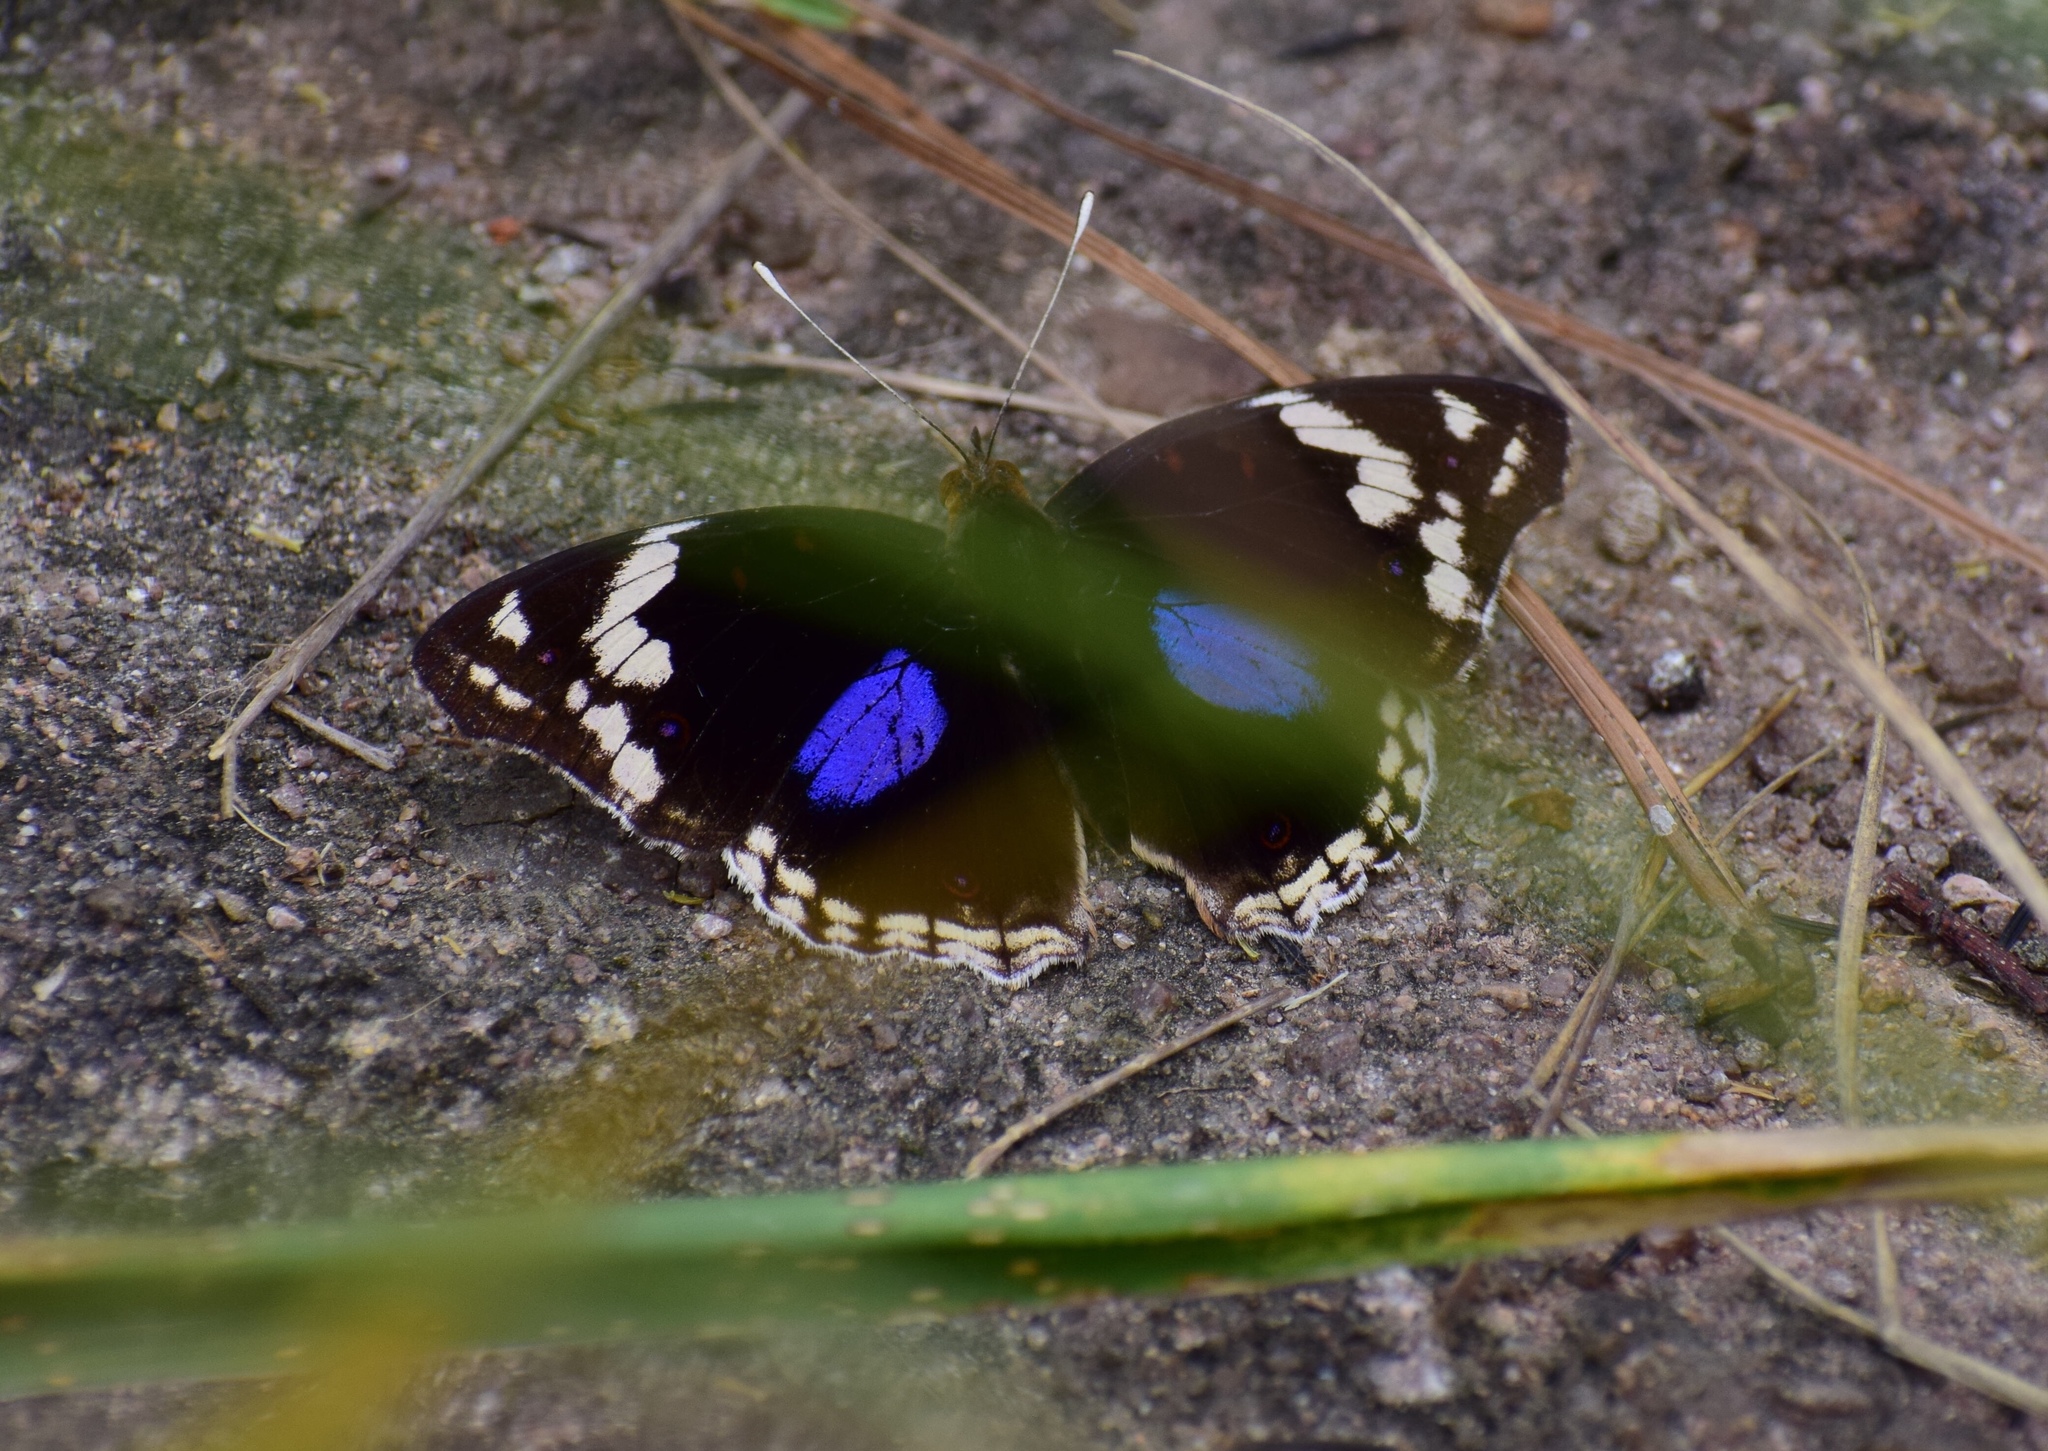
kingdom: Animalia
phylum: Arthropoda
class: Insecta
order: Lepidoptera
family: Nymphalidae
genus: Junonia
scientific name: Junonia oenone
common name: Dark blue pansy
